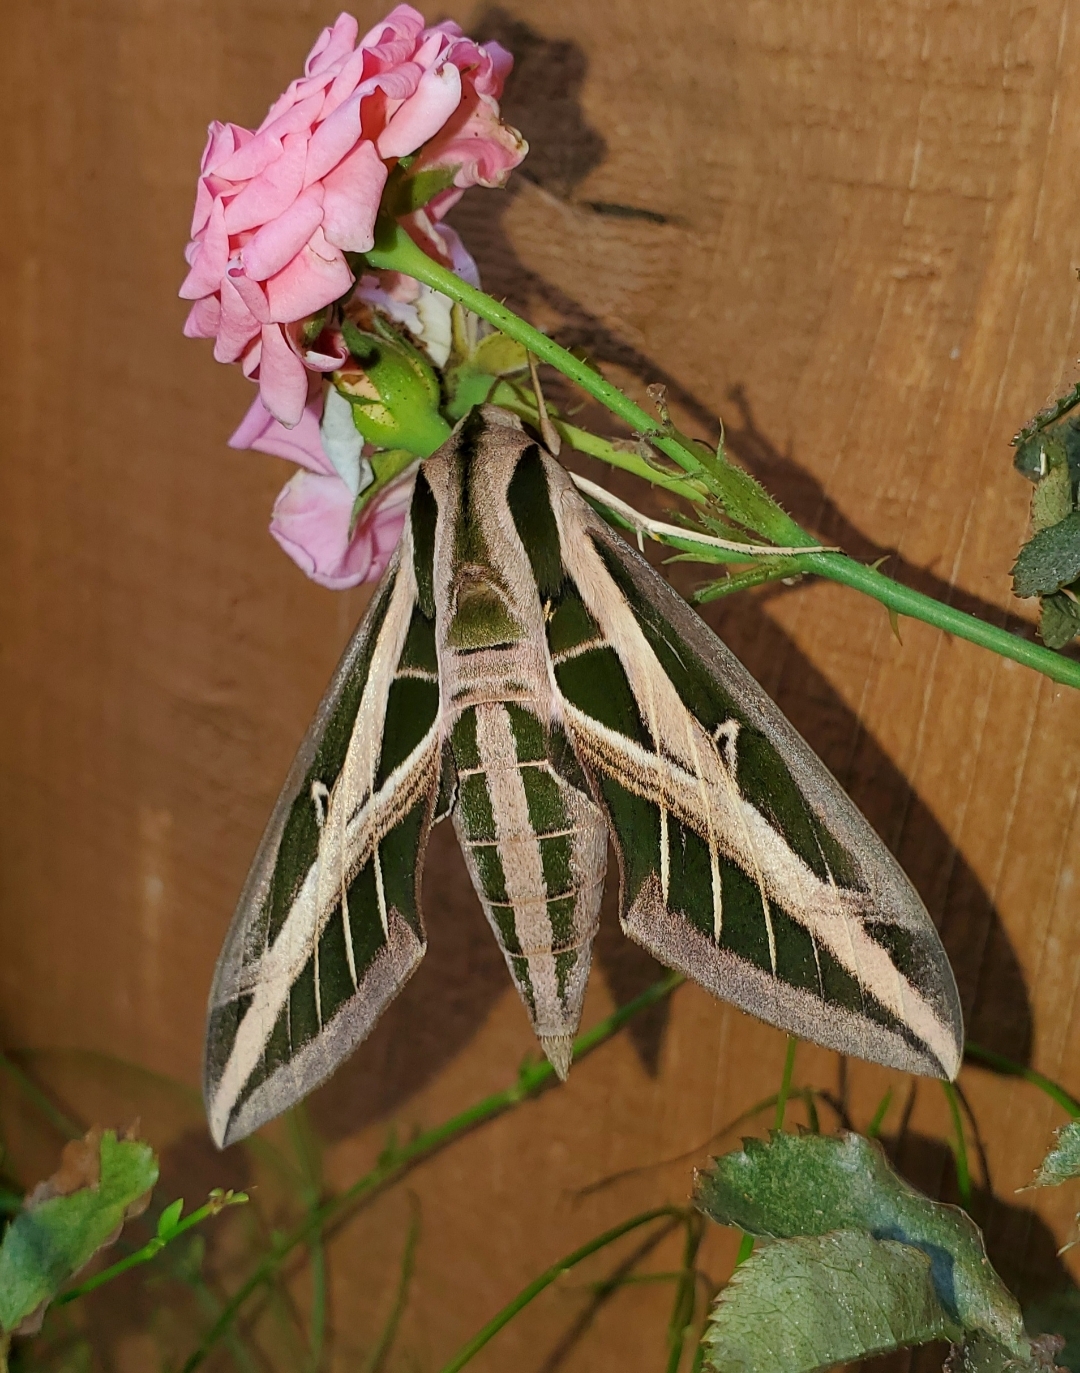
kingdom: Animalia
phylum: Arthropoda
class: Insecta
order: Lepidoptera
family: Sphingidae
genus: Eumorpha
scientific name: Eumorpha fasciatus
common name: Banded sphinx
